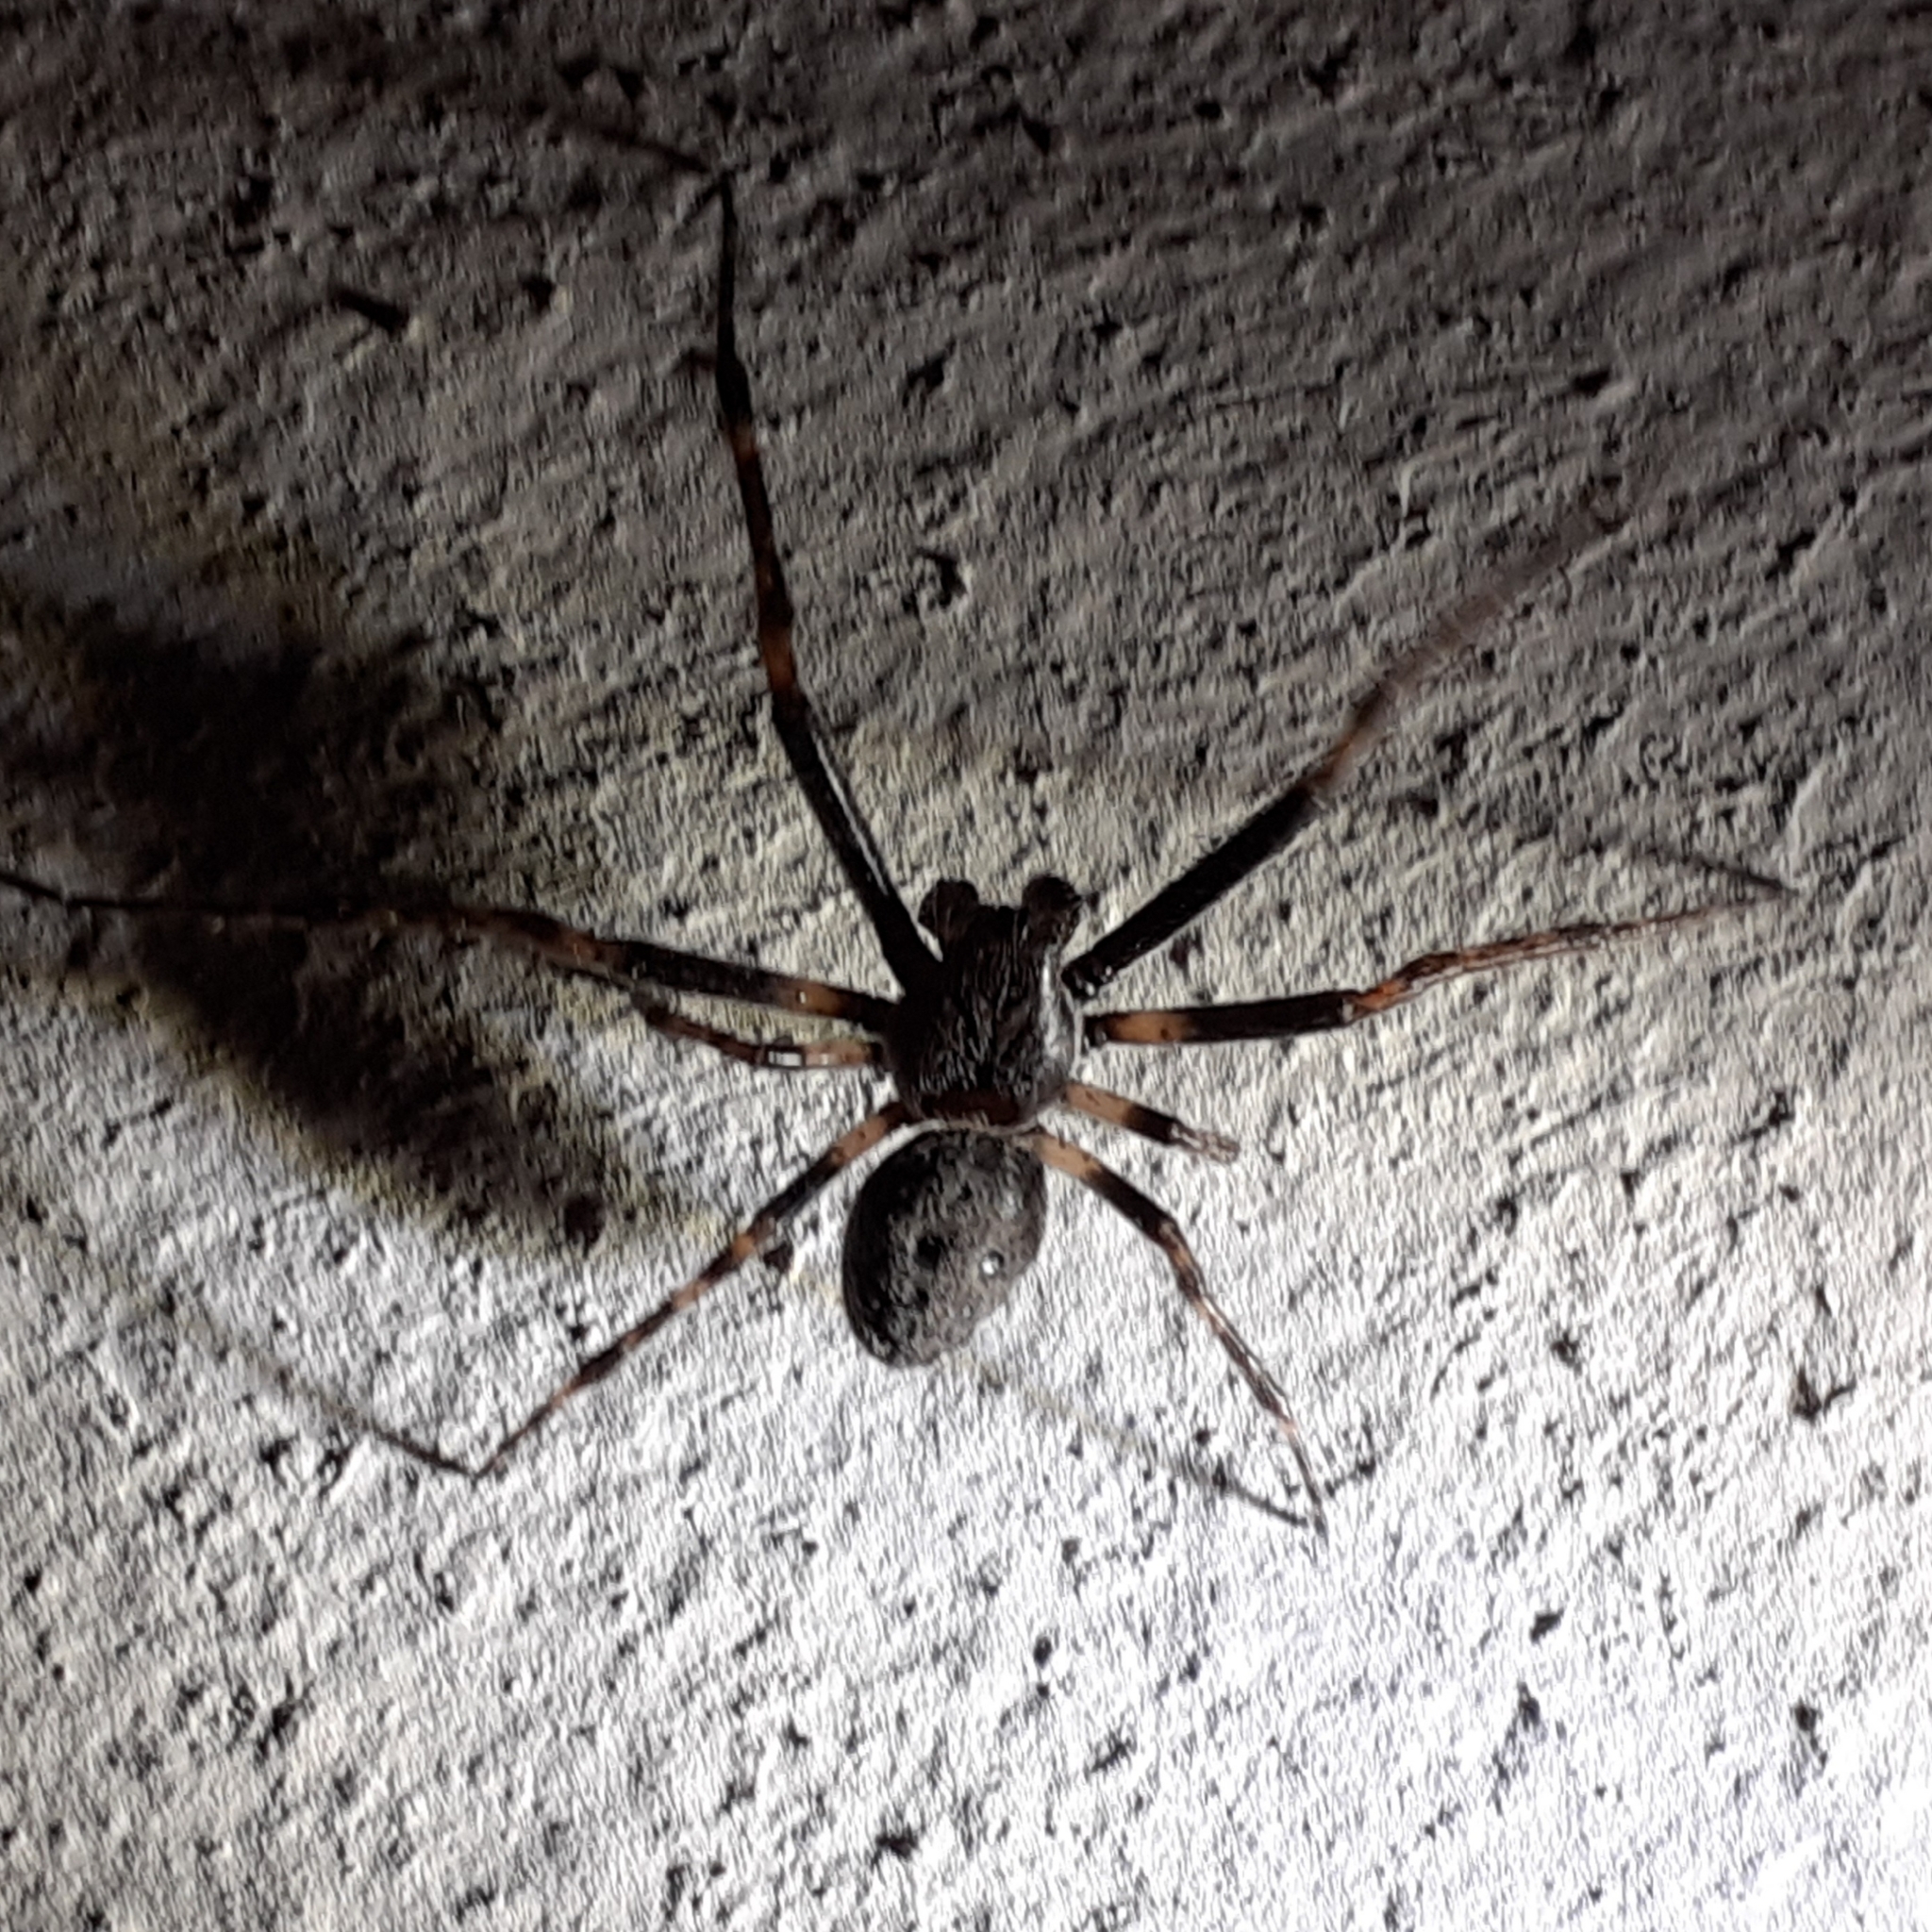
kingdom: Animalia
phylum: Arthropoda
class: Arachnida
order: Araneae
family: Araneidae
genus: Nuctenea
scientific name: Nuctenea umbratica
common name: Toad spider
